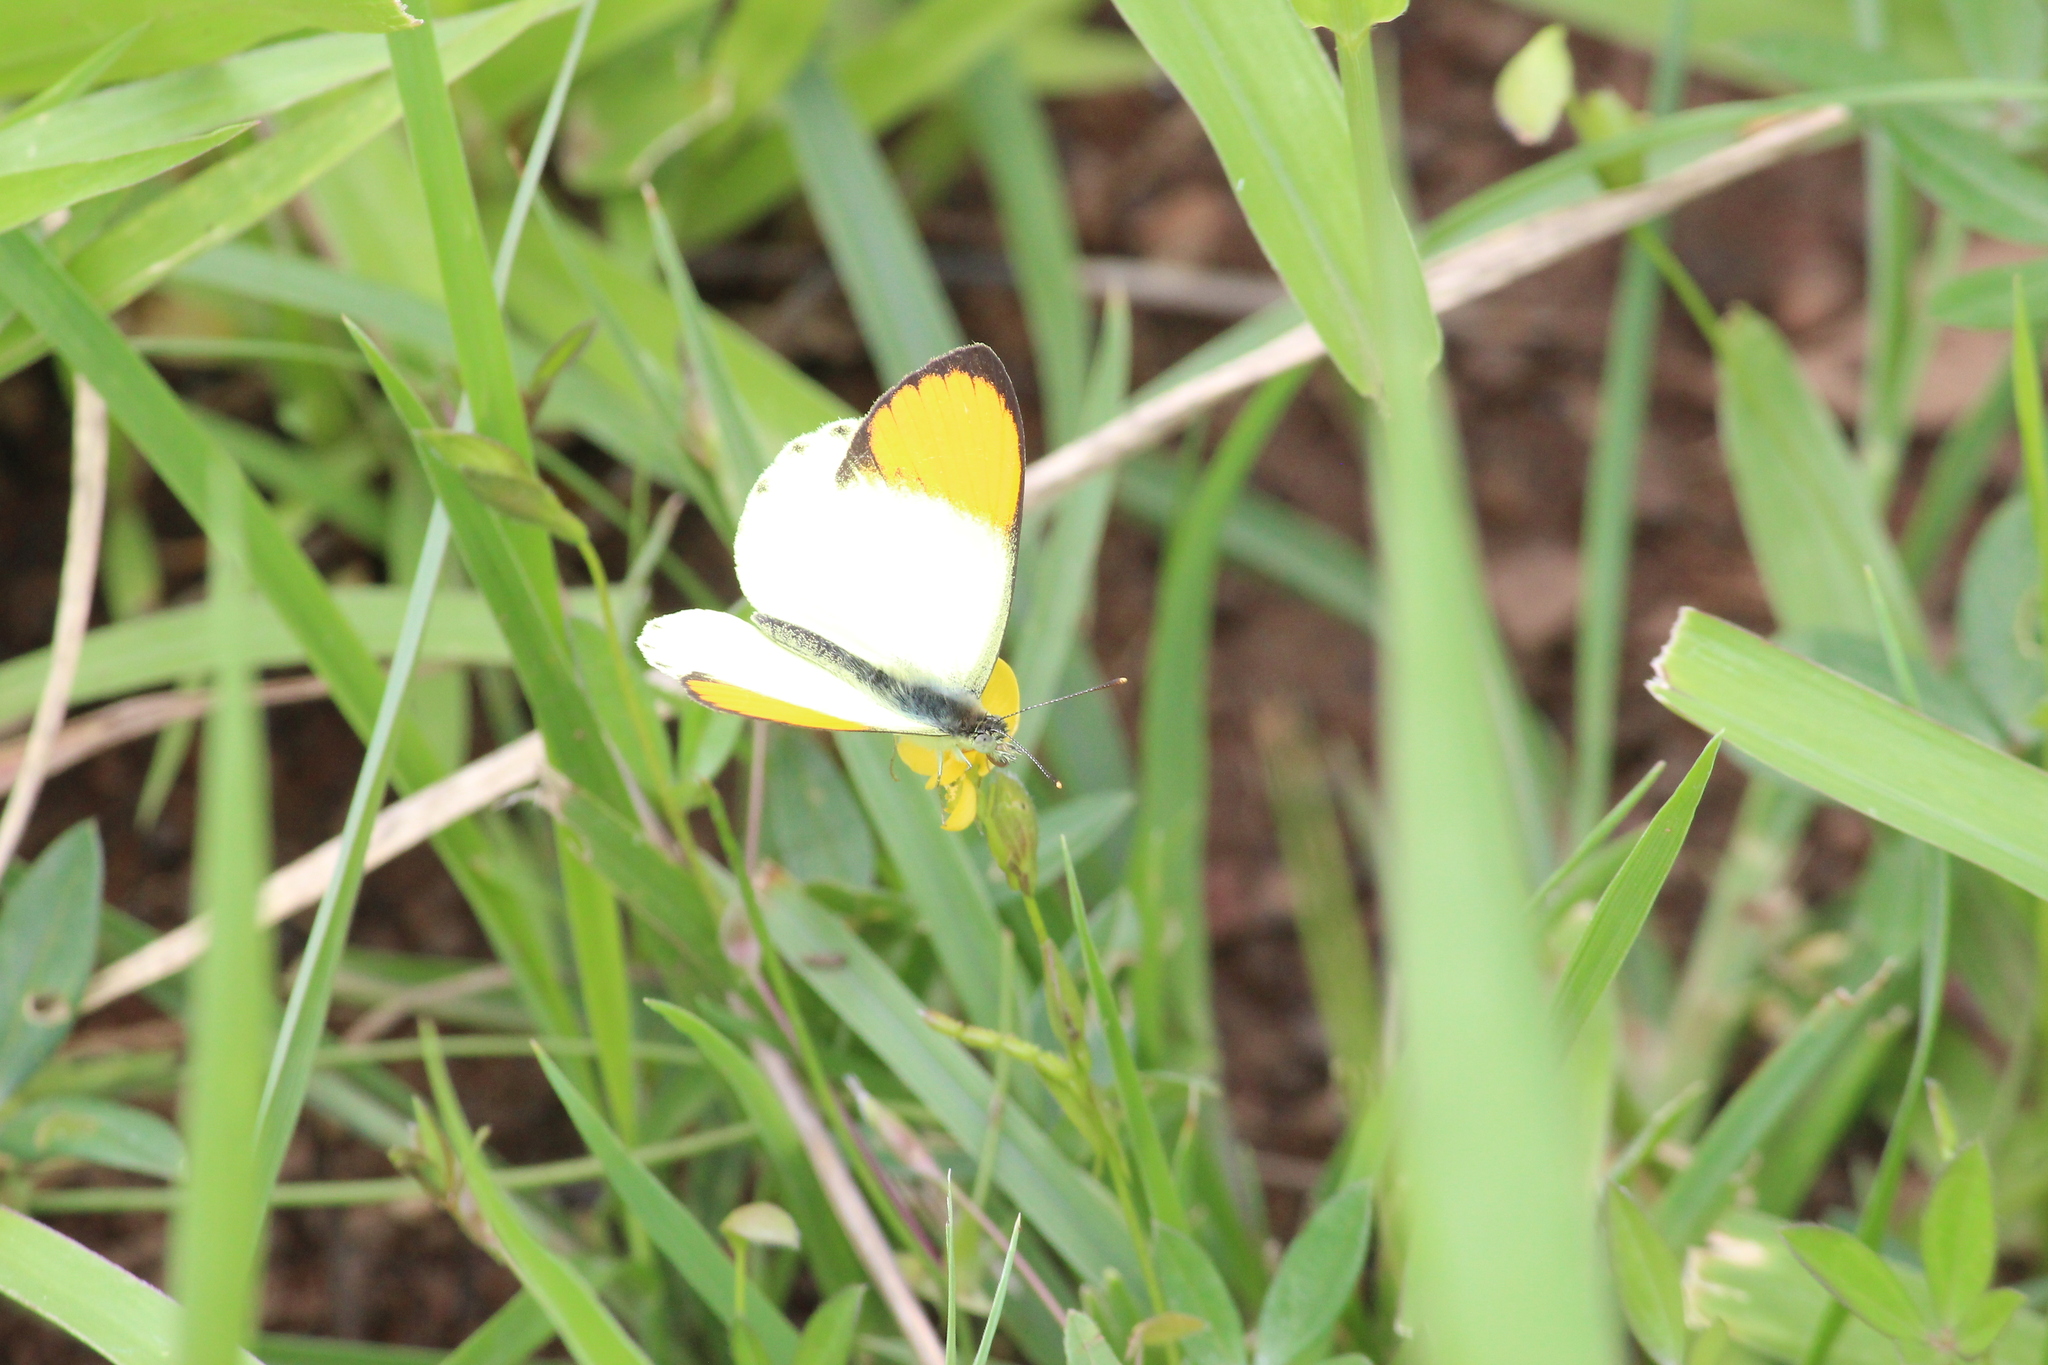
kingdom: Animalia
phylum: Arthropoda
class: Insecta
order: Lepidoptera
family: Pieridae
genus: Colotis
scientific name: Colotis auxo
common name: Sulphur orange tip
